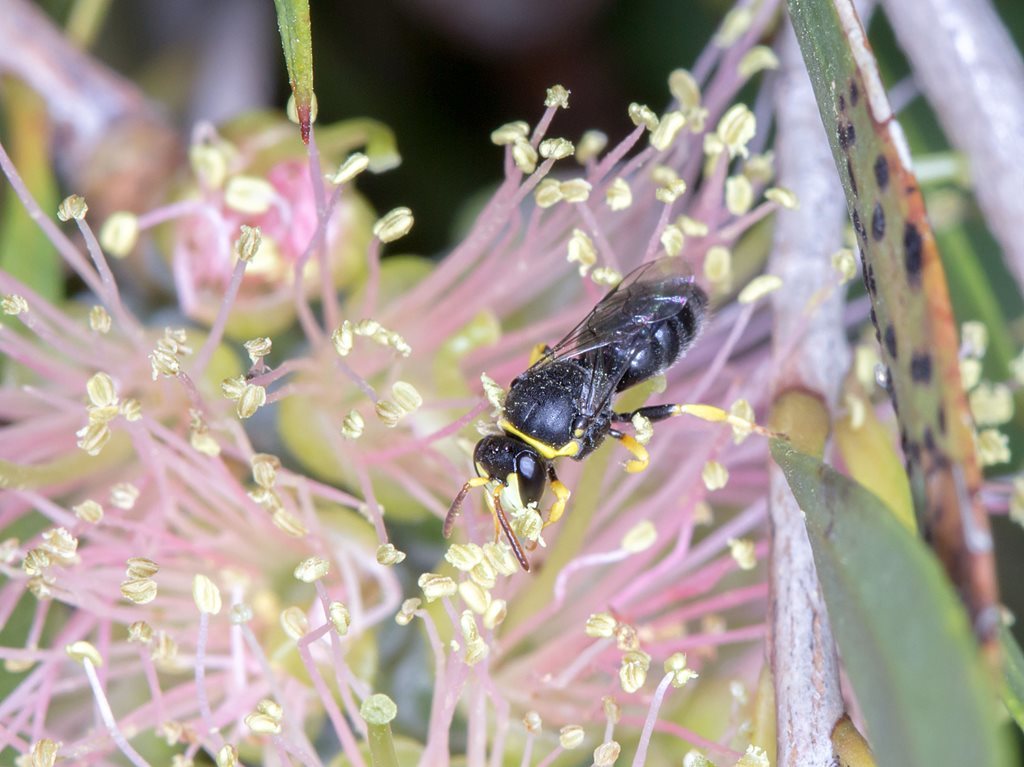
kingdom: Animalia
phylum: Arthropoda
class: Insecta
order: Hymenoptera
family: Colletidae
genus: Hylaeus
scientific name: Hylaeus euxanthus
